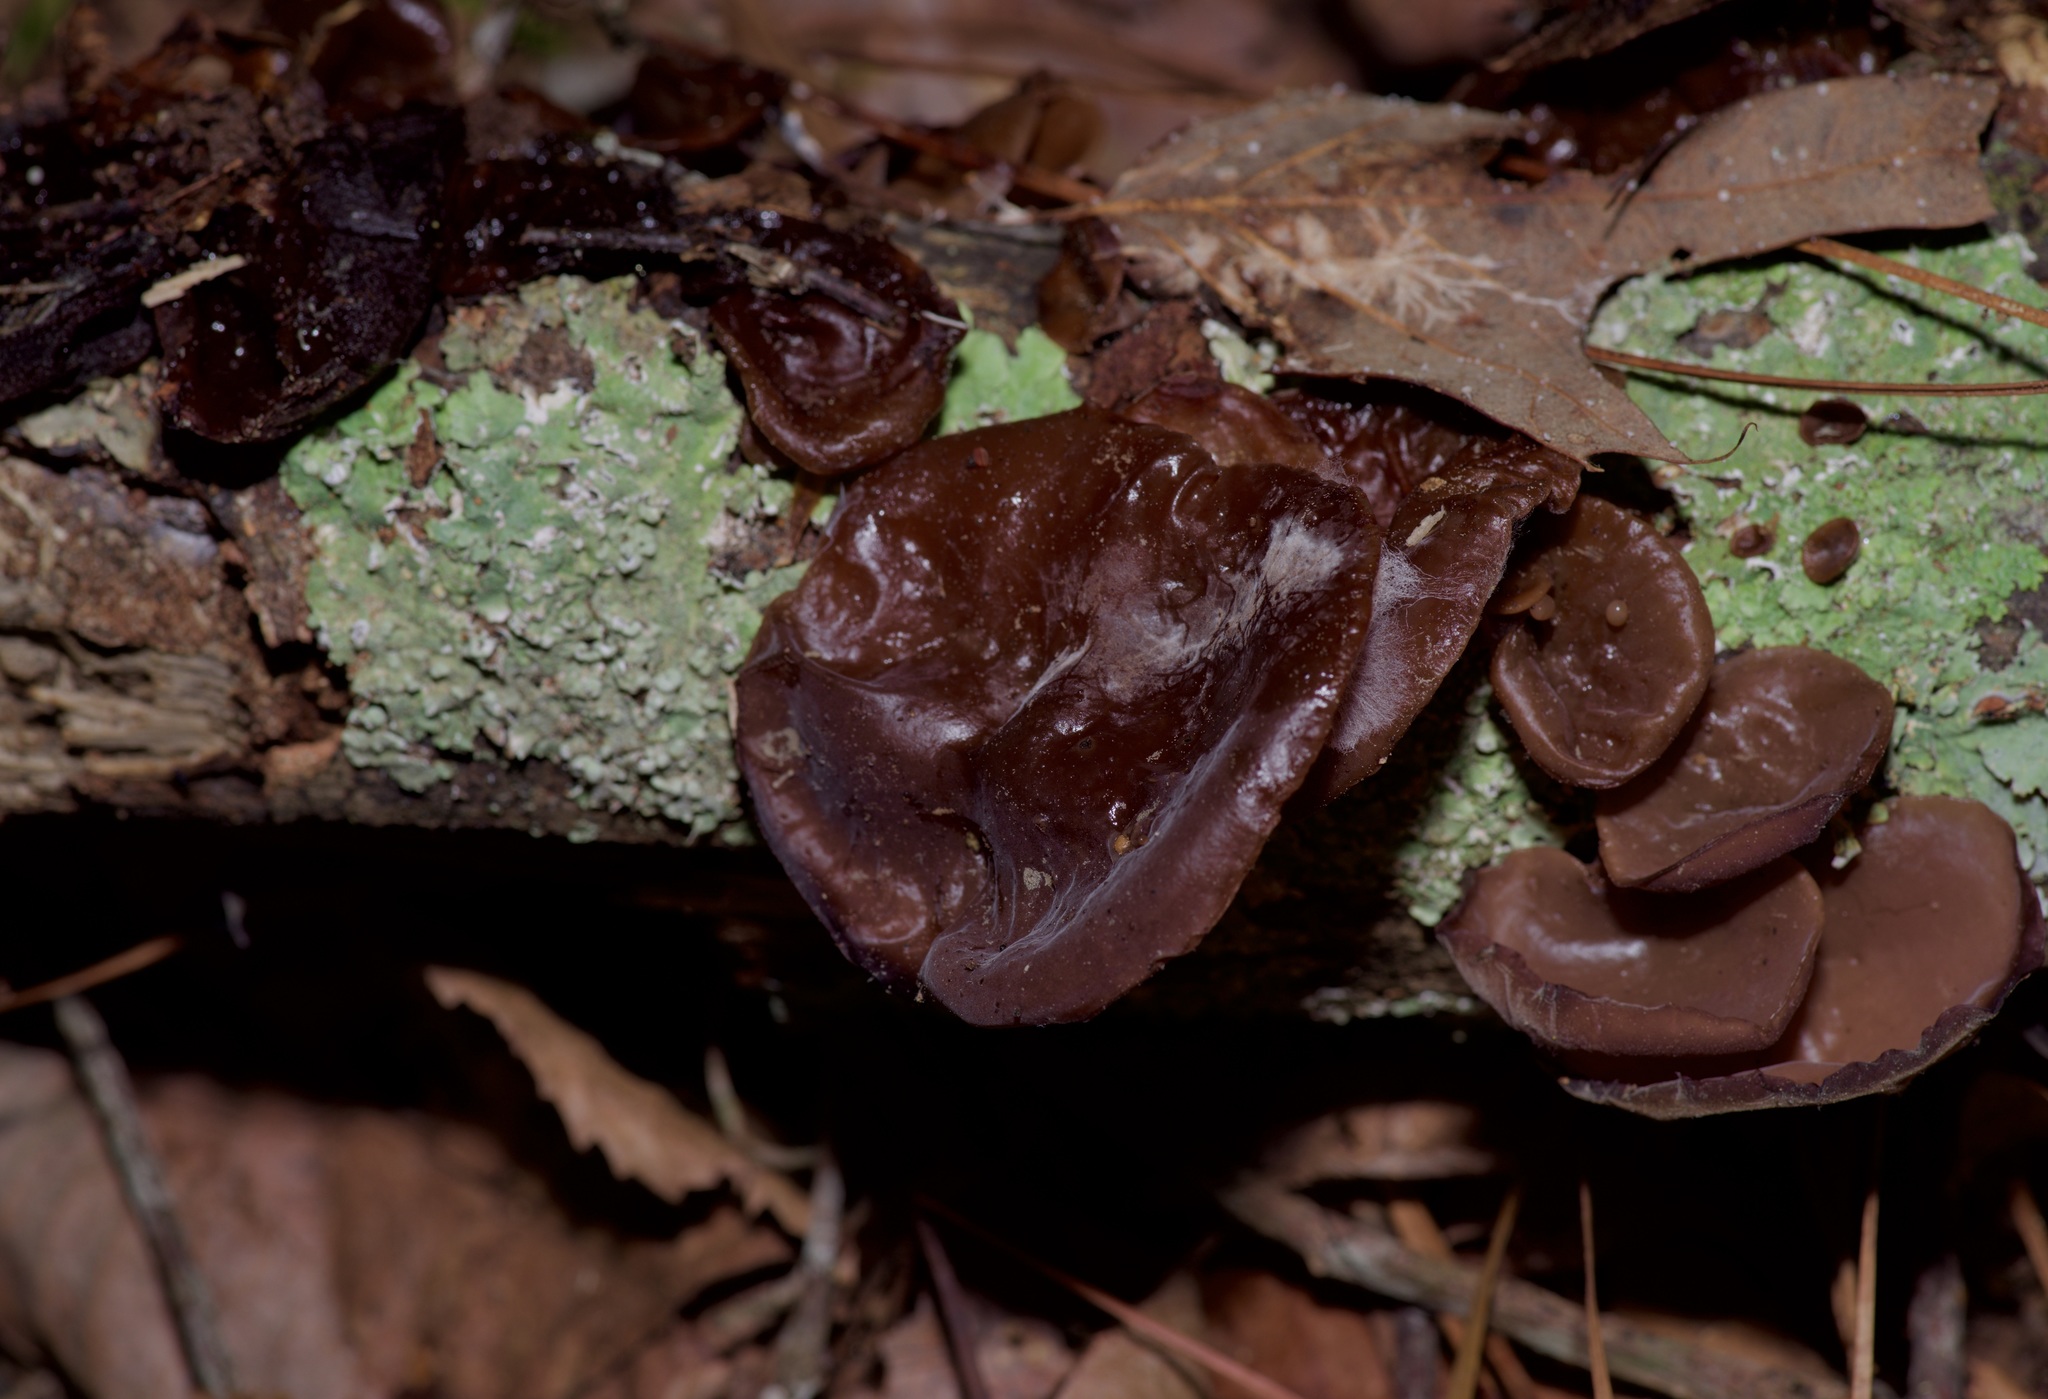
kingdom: Fungi
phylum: Basidiomycota
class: Agaricomycetes
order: Auriculariales
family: Auriculariaceae
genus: Exidia
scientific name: Exidia
